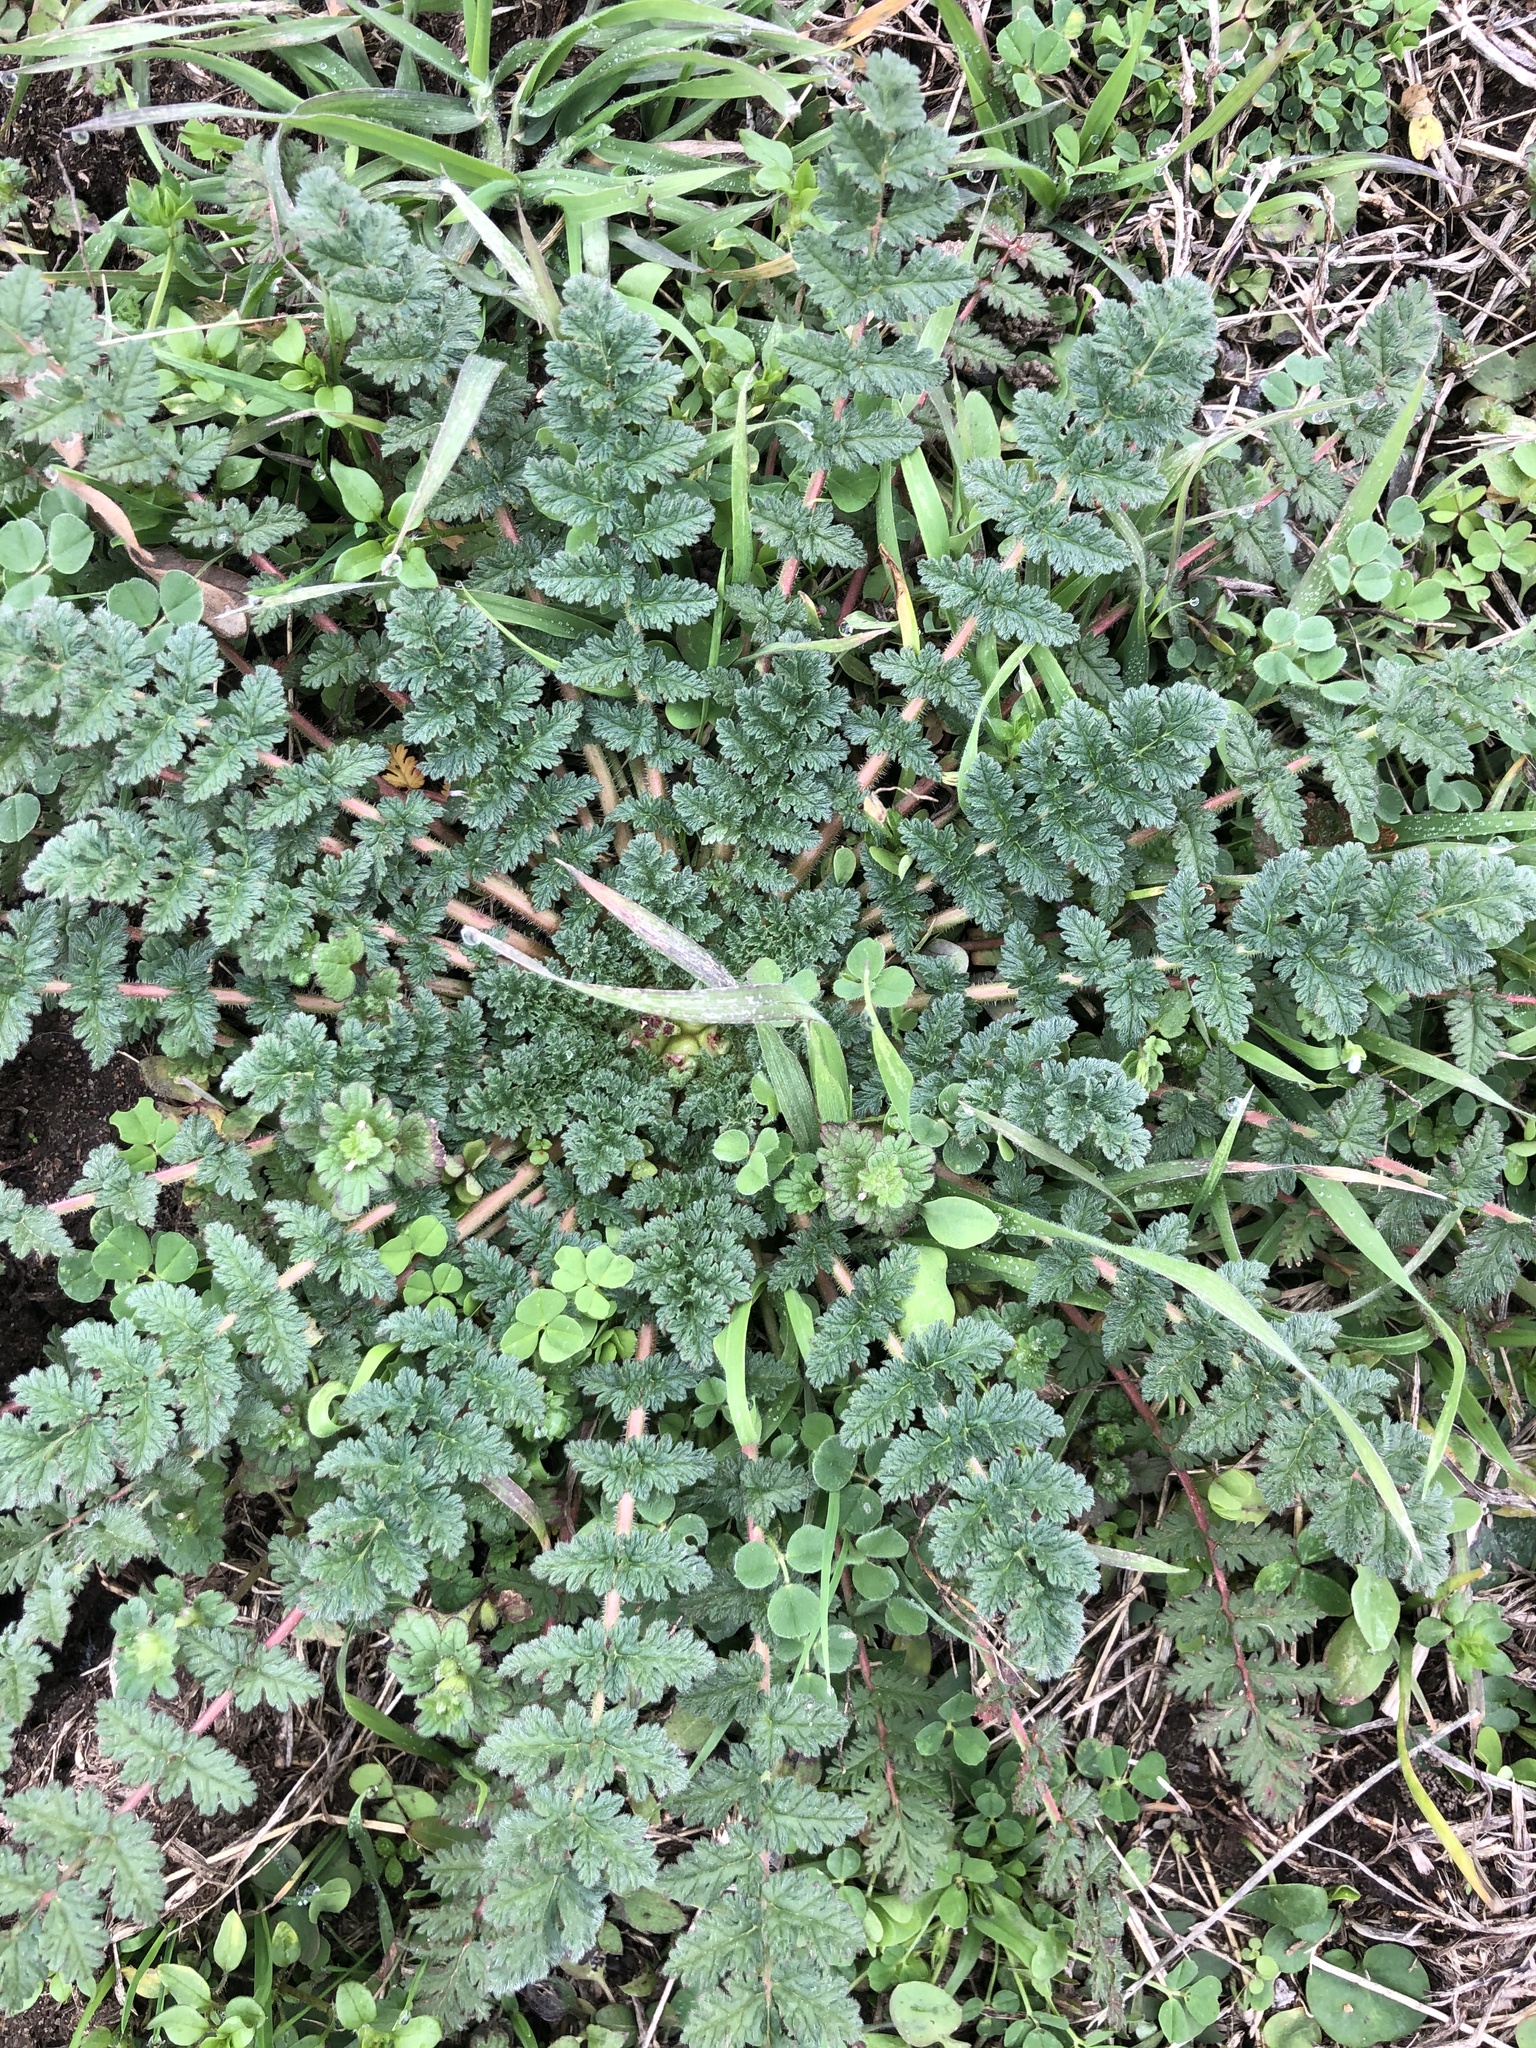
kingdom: Plantae
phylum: Tracheophyta
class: Magnoliopsida
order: Geraniales
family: Geraniaceae
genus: Erodium
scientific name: Erodium cicutarium
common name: Common stork's-bill
